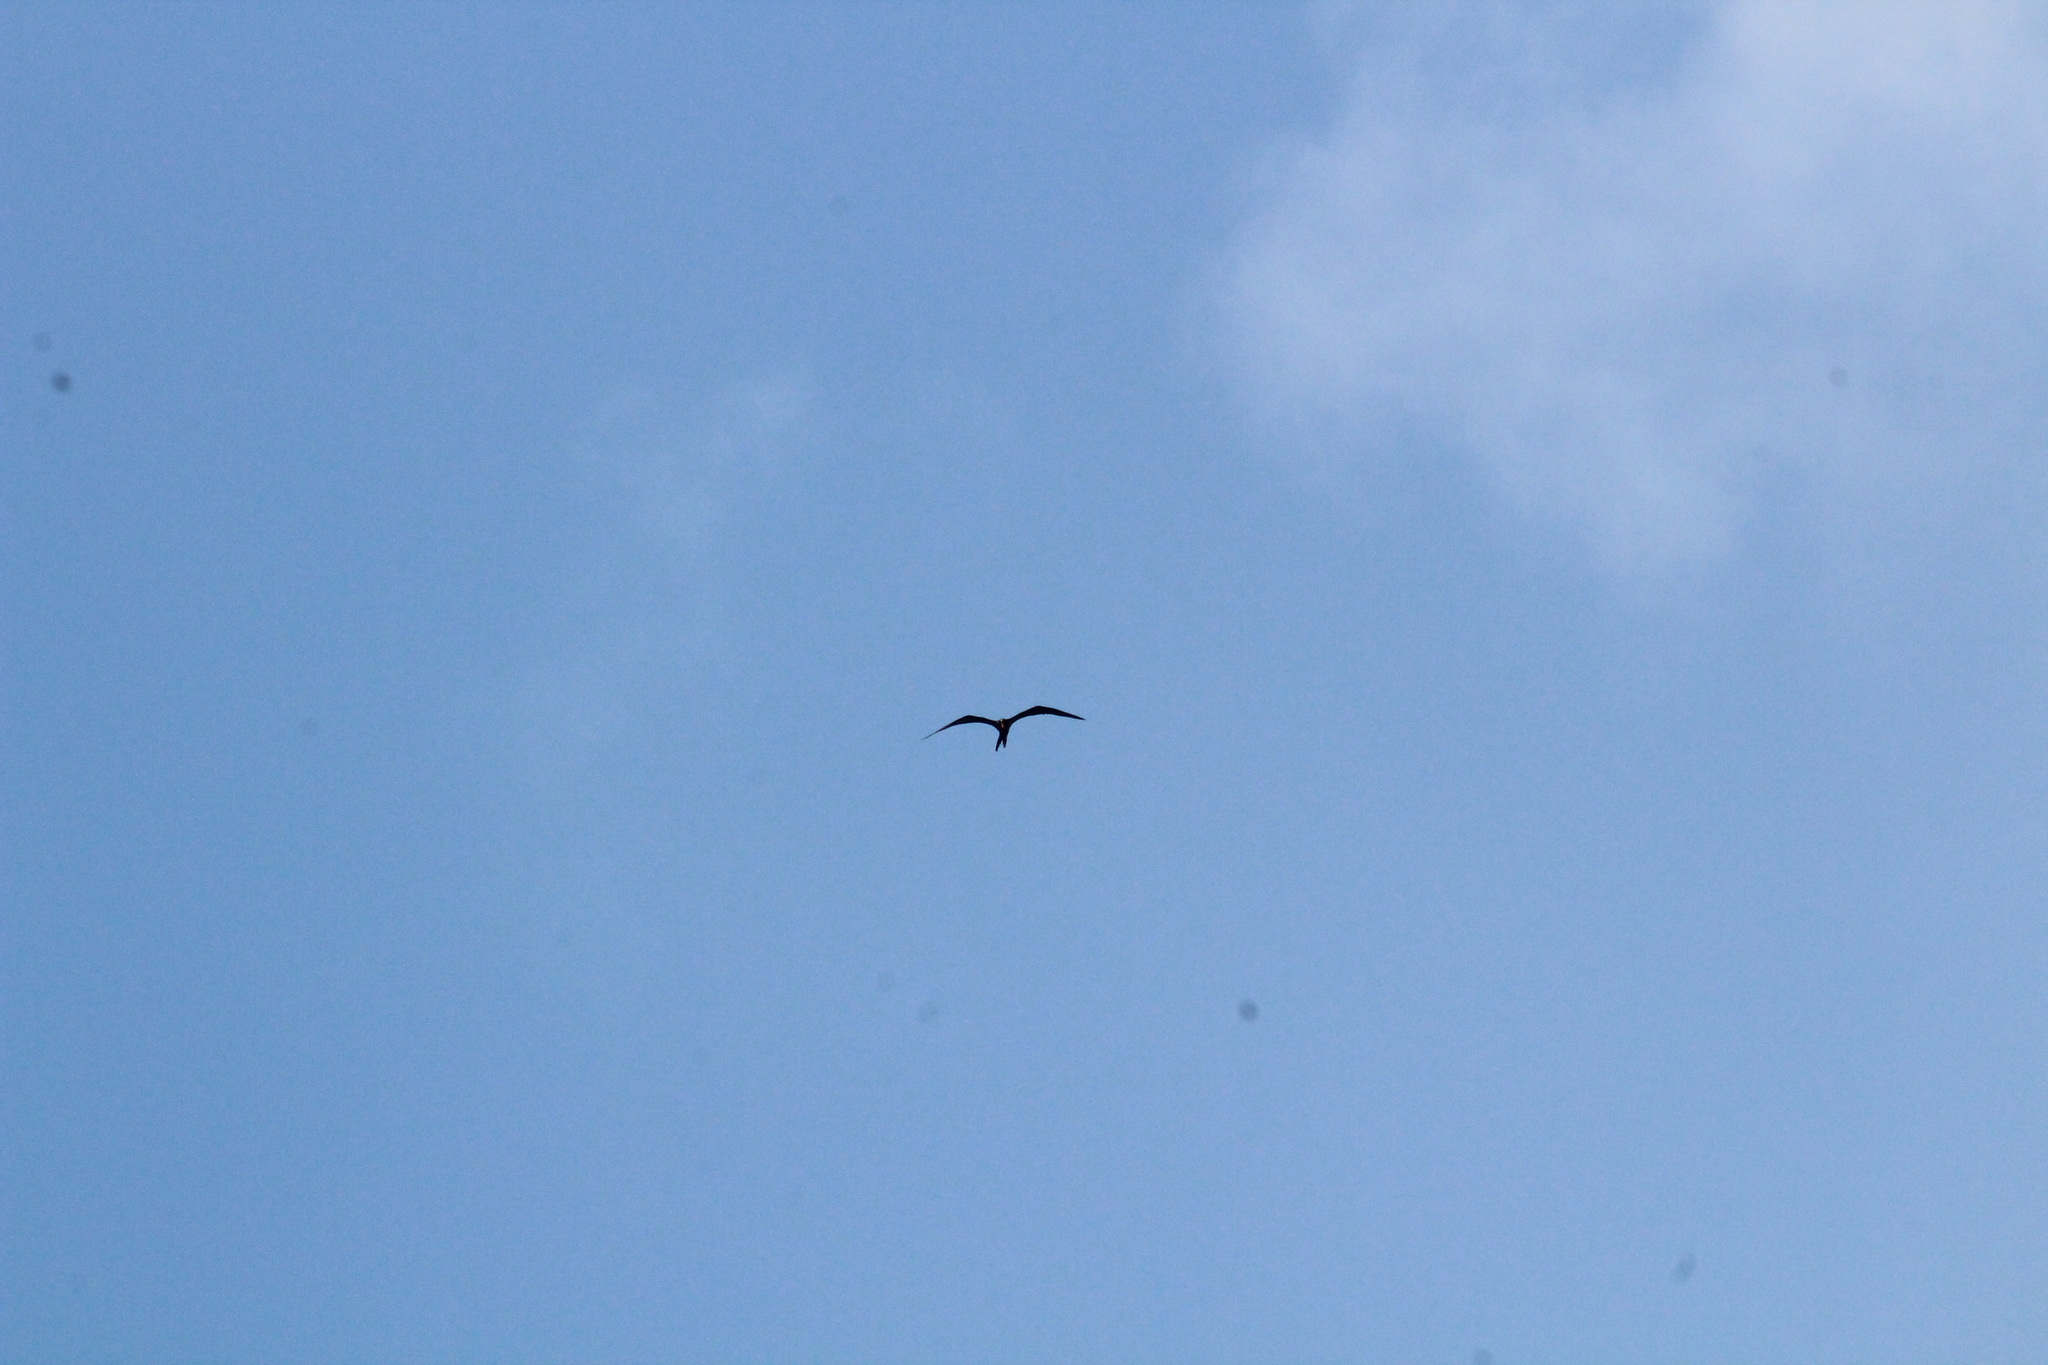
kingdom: Animalia
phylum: Chordata
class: Aves
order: Suliformes
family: Fregatidae
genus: Fregata
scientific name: Fregata magnificens
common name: Magnificent frigatebird
